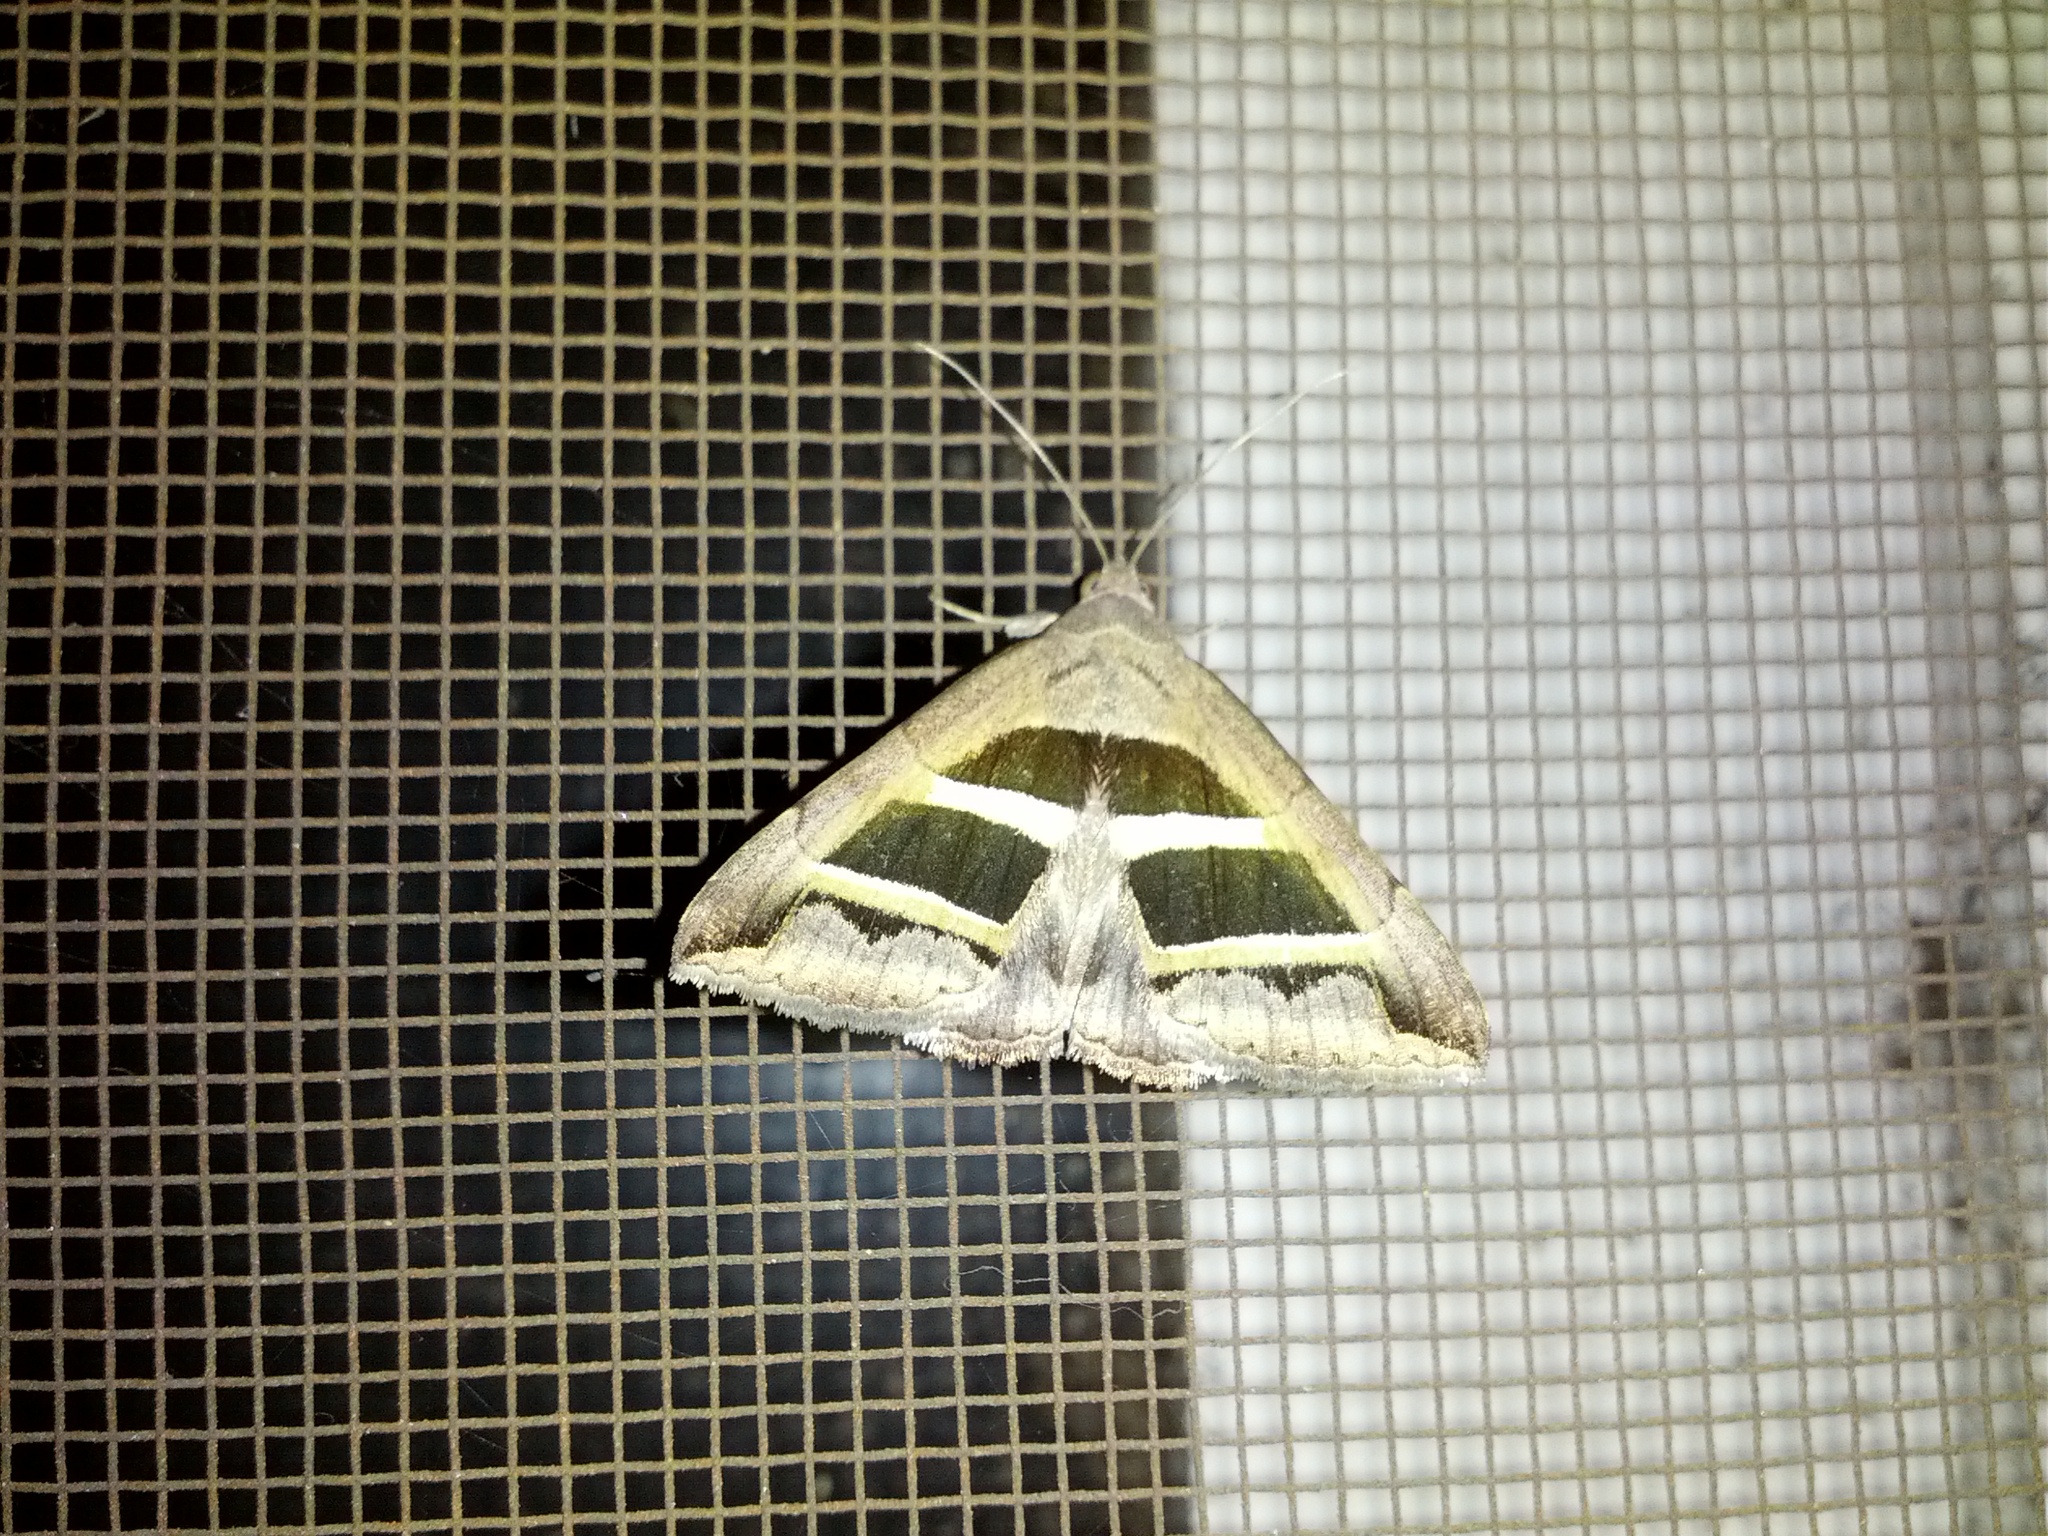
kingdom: Animalia
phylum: Arthropoda
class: Insecta
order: Lepidoptera
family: Erebidae
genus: Grammodes
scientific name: Grammodes bifasciata
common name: Parallel lines
